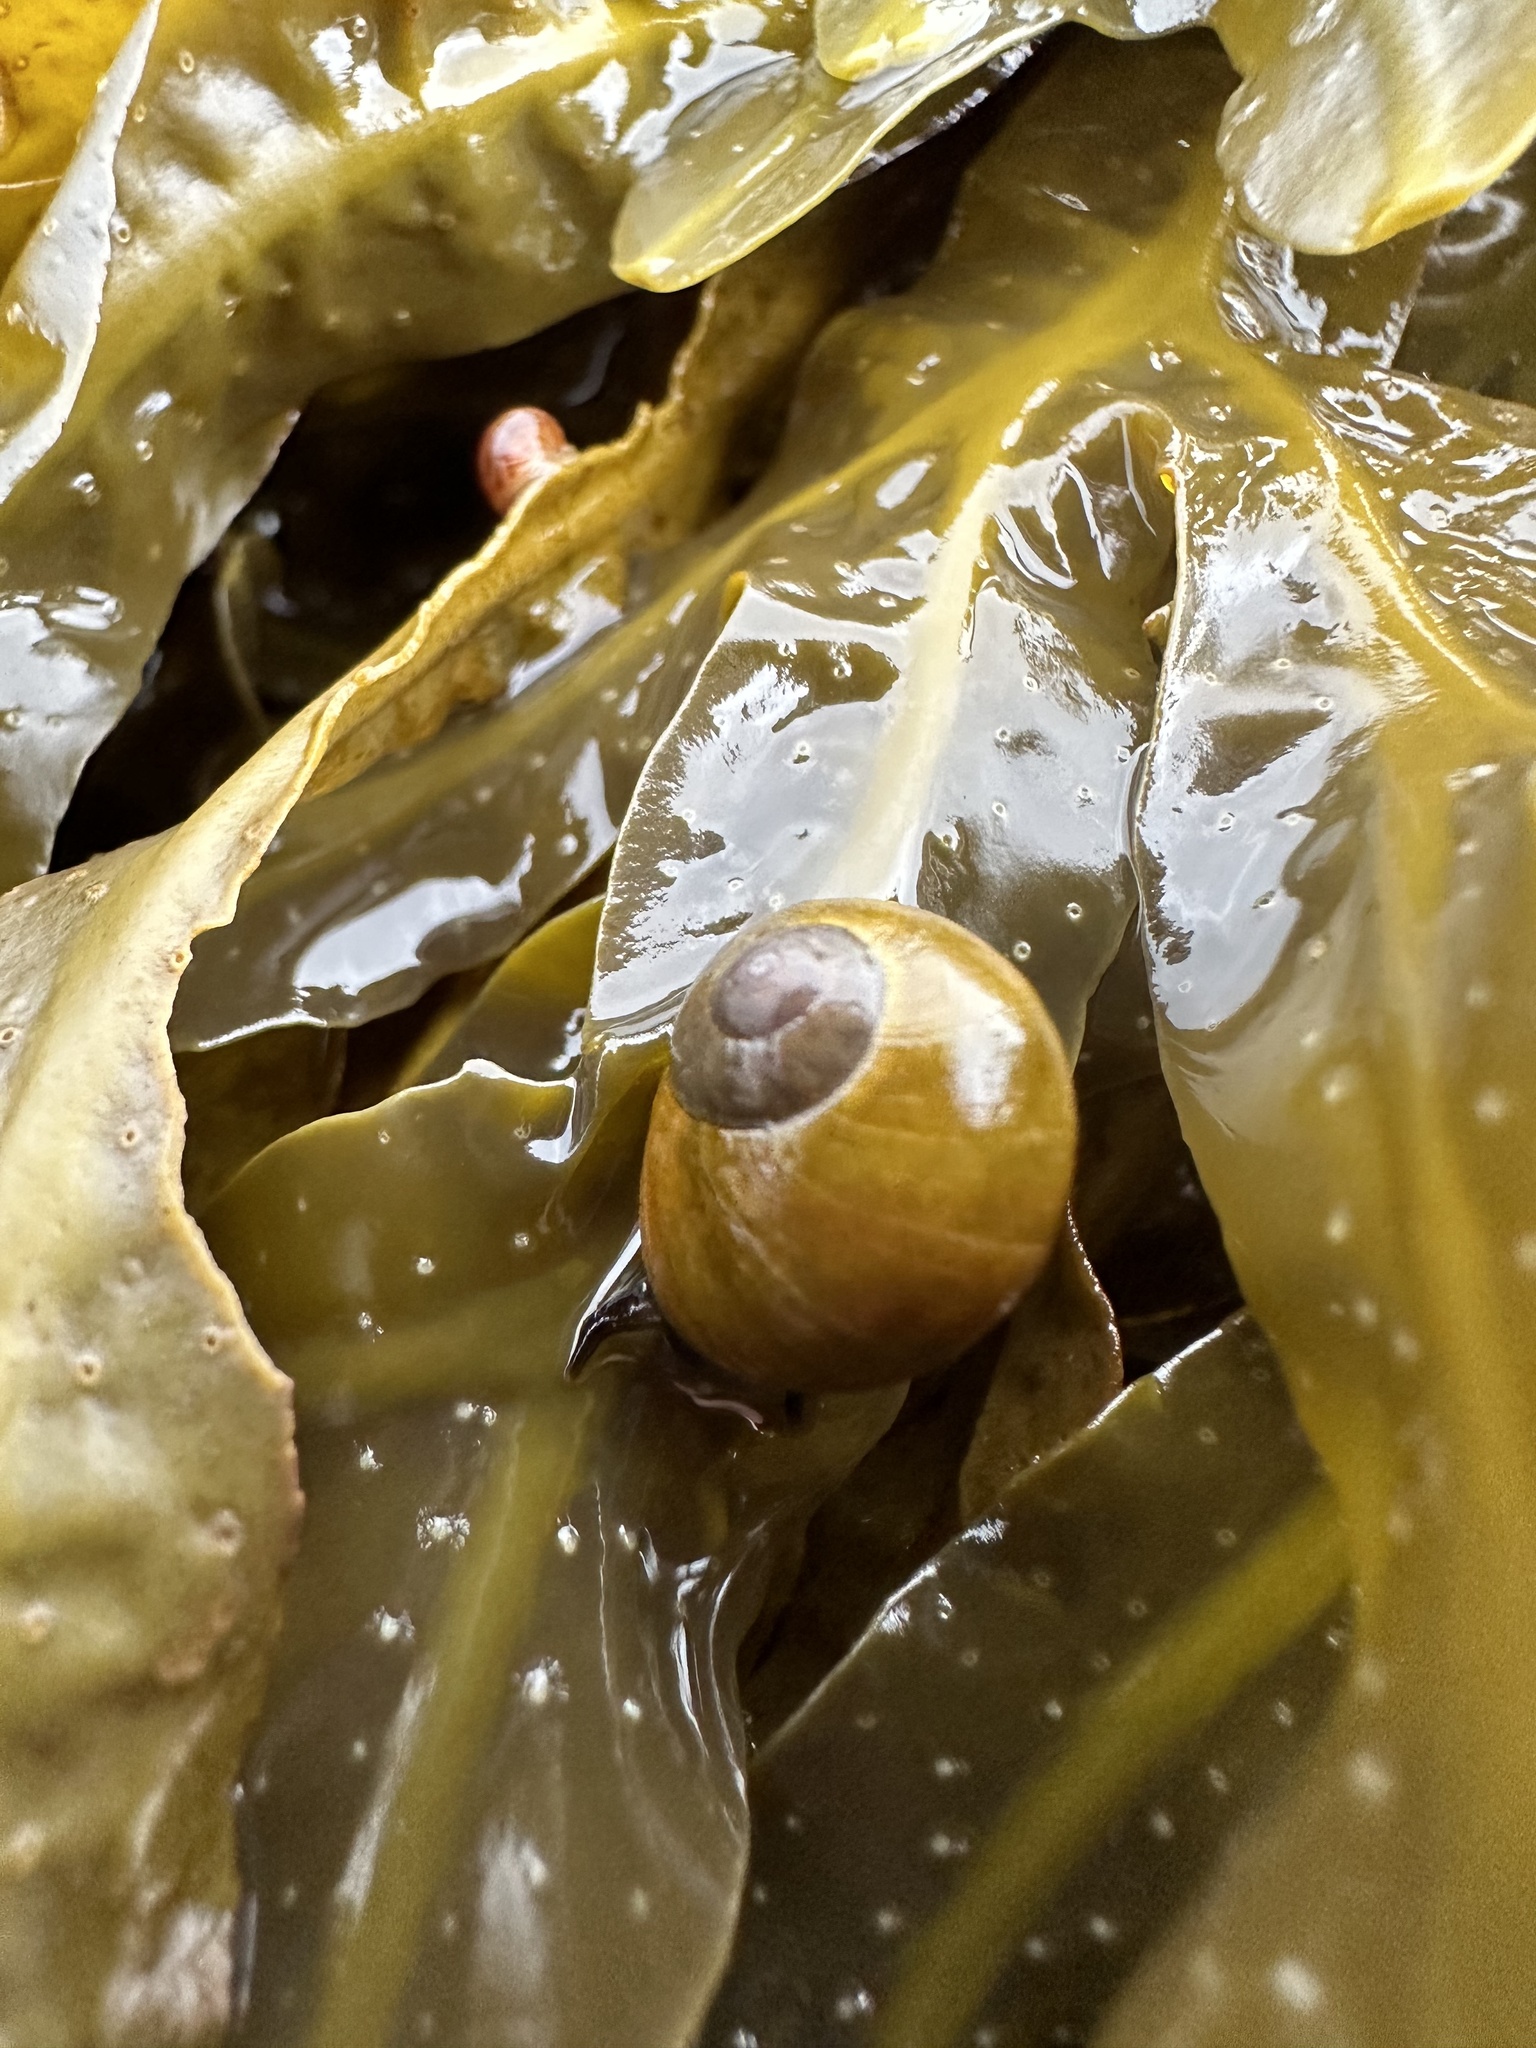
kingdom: Animalia
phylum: Mollusca
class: Gastropoda
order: Littorinimorpha
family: Littorinidae
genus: Littorina
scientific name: Littorina obtusata
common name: Flat periwinkle
